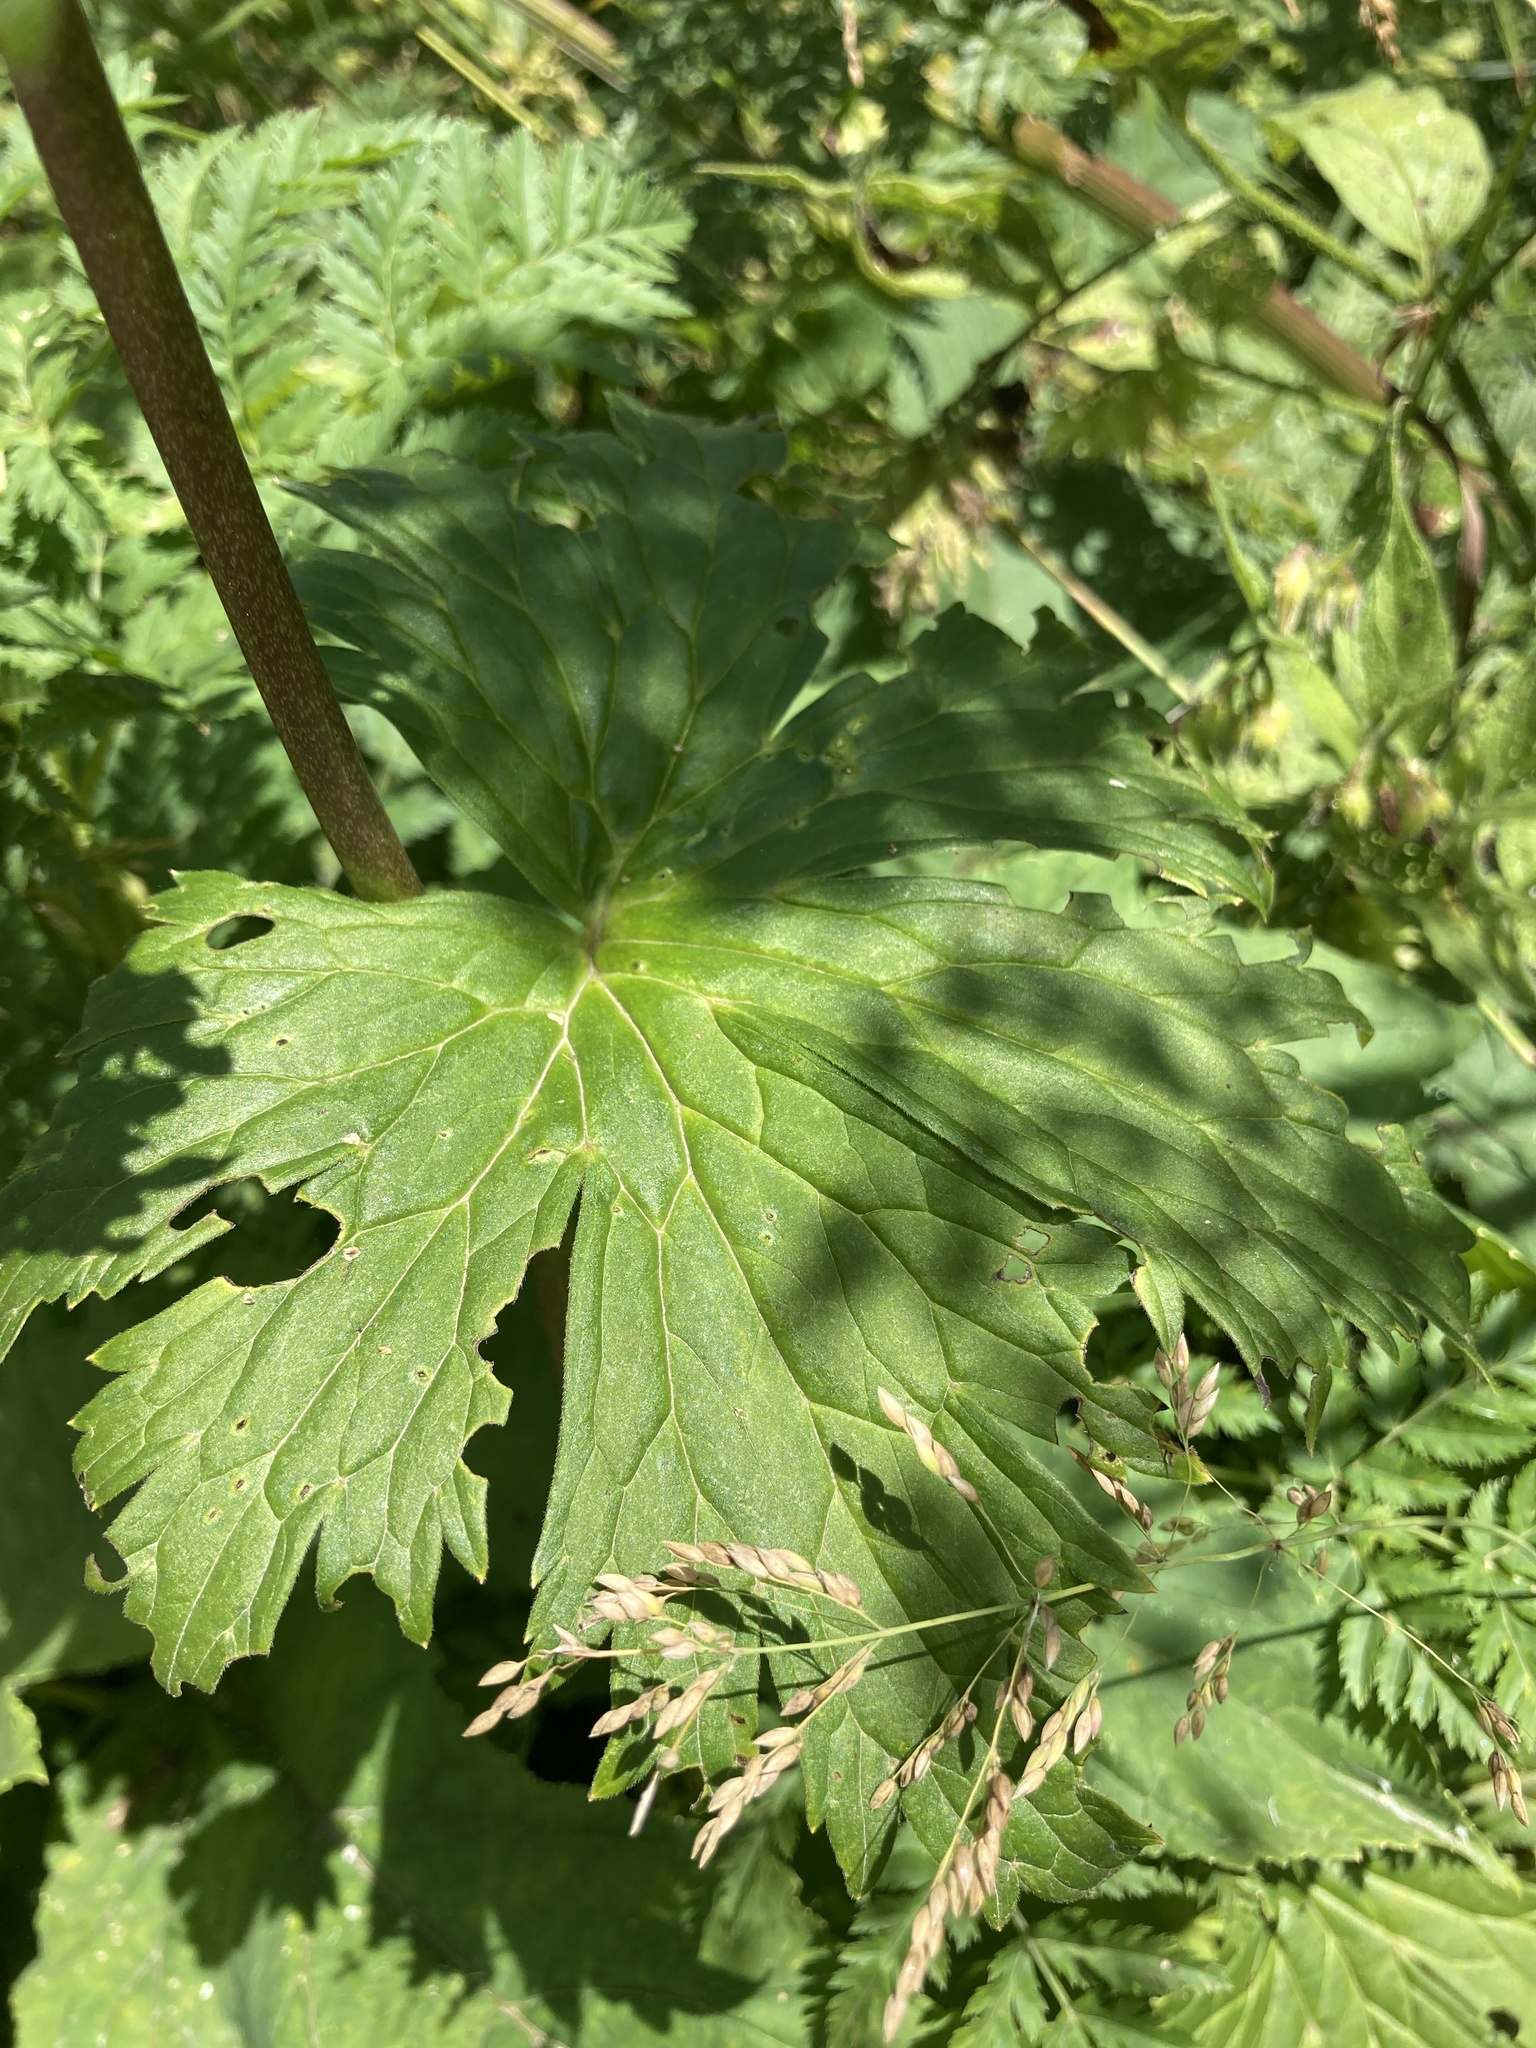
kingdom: Plantae
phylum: Tracheophyta
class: Magnoliopsida
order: Ranunculales
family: Ranunculaceae
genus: Aconitum
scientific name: Aconitum orientale
